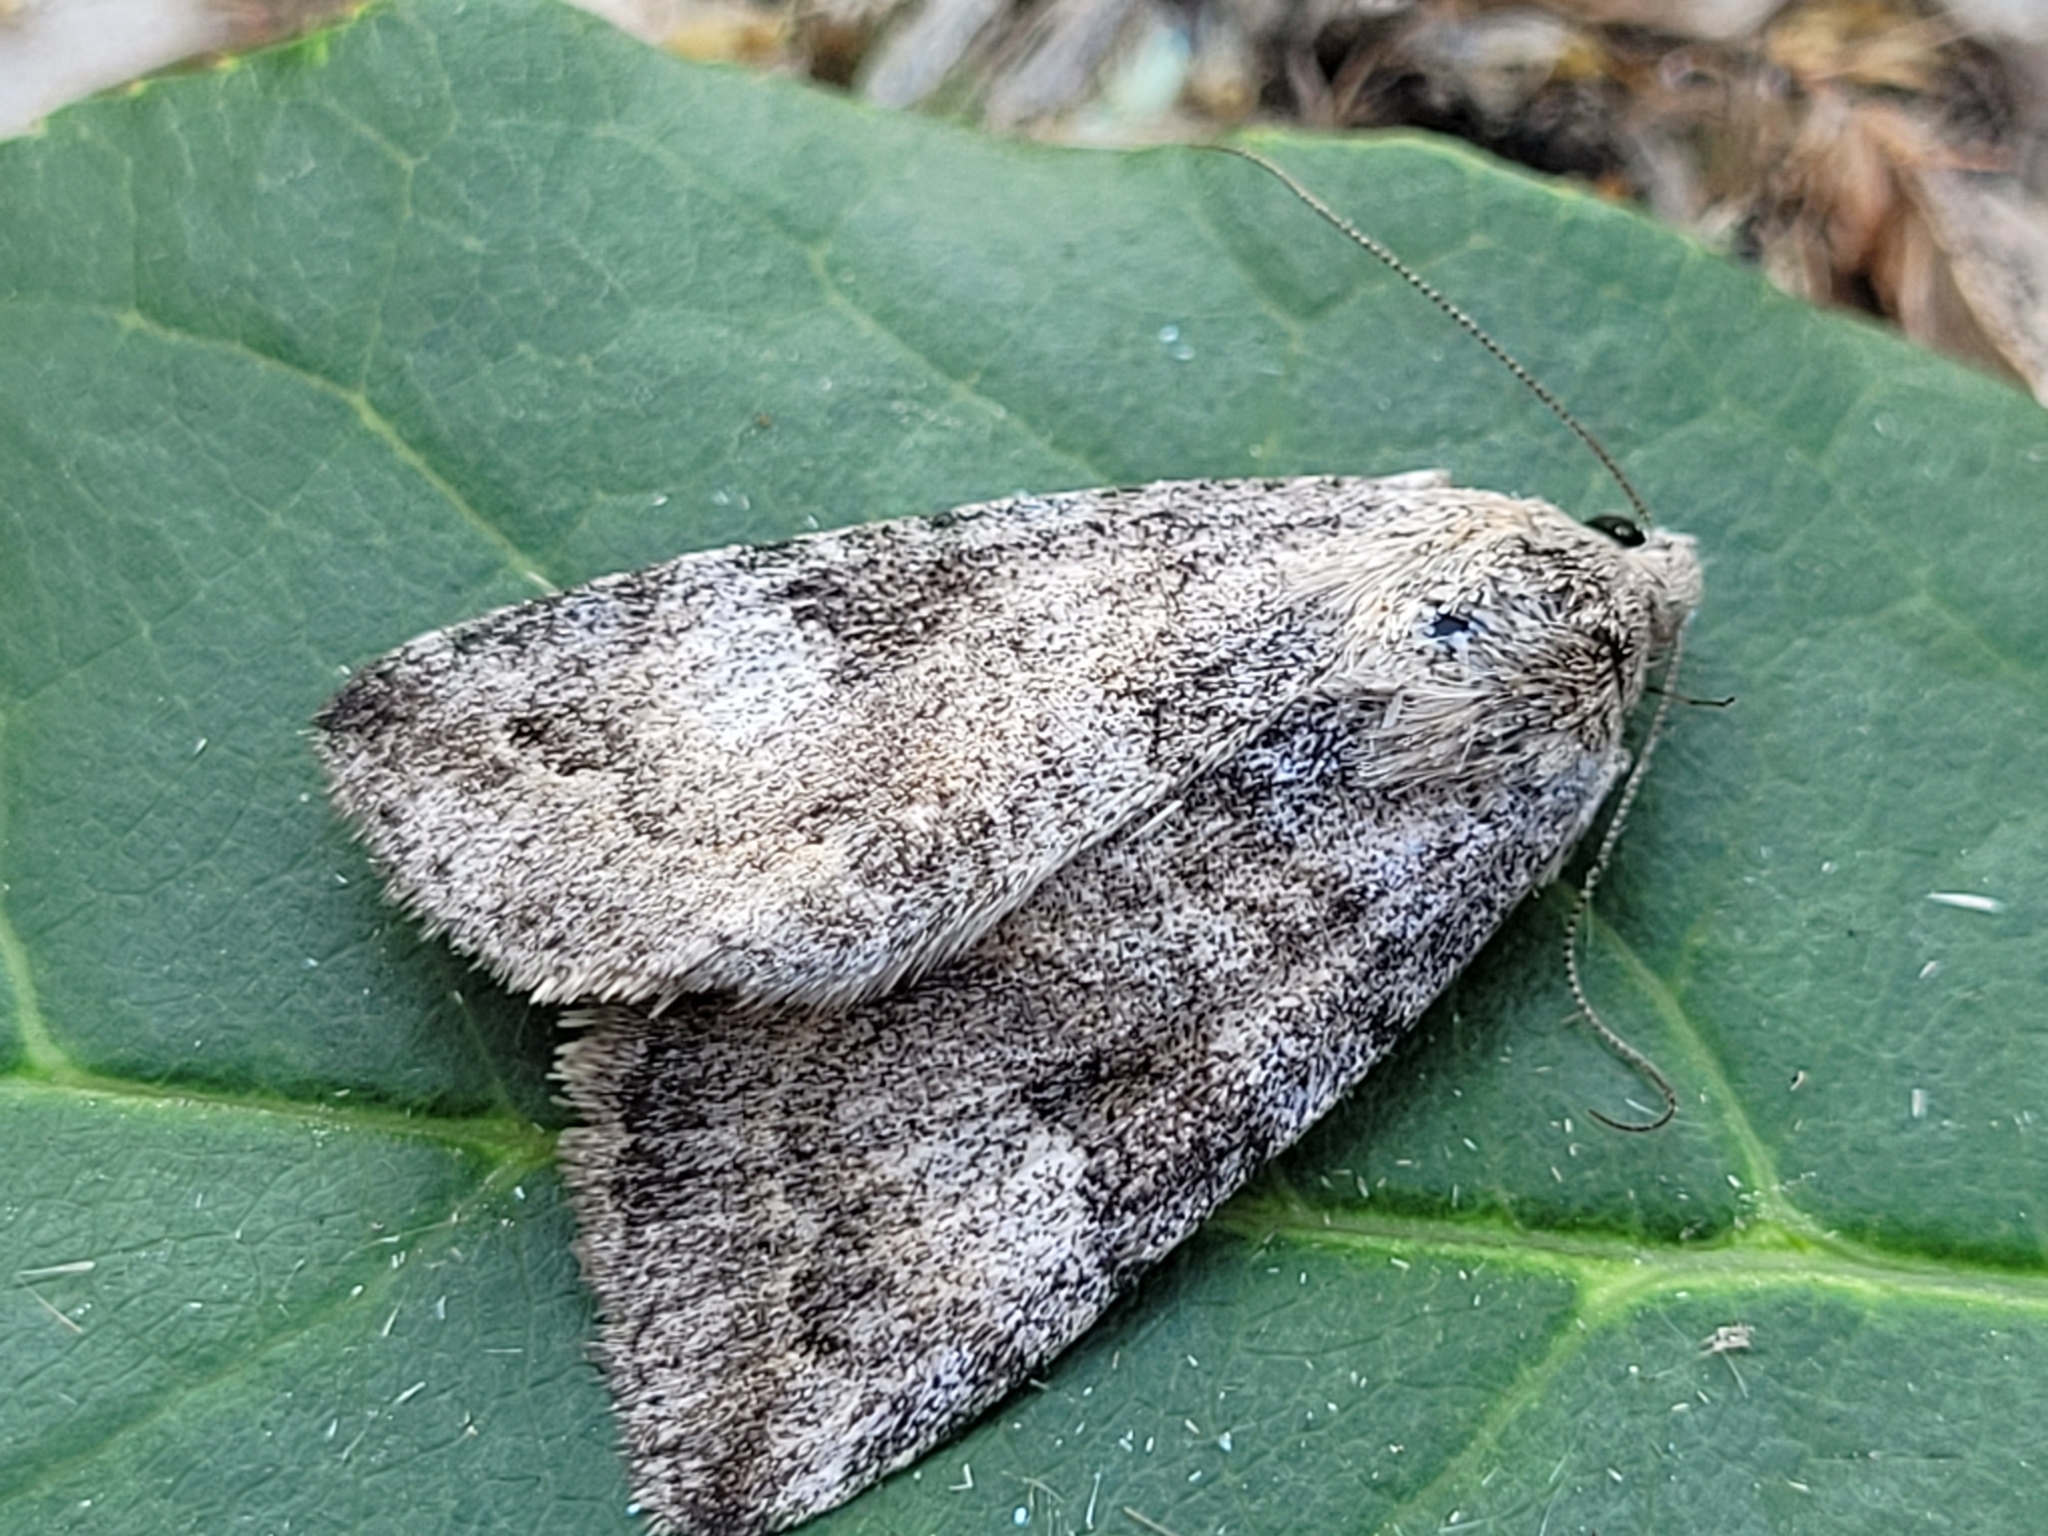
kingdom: Animalia
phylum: Arthropoda
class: Insecta
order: Lepidoptera
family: Erebidae
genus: Drasteria
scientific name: Drasteria hudsonica
